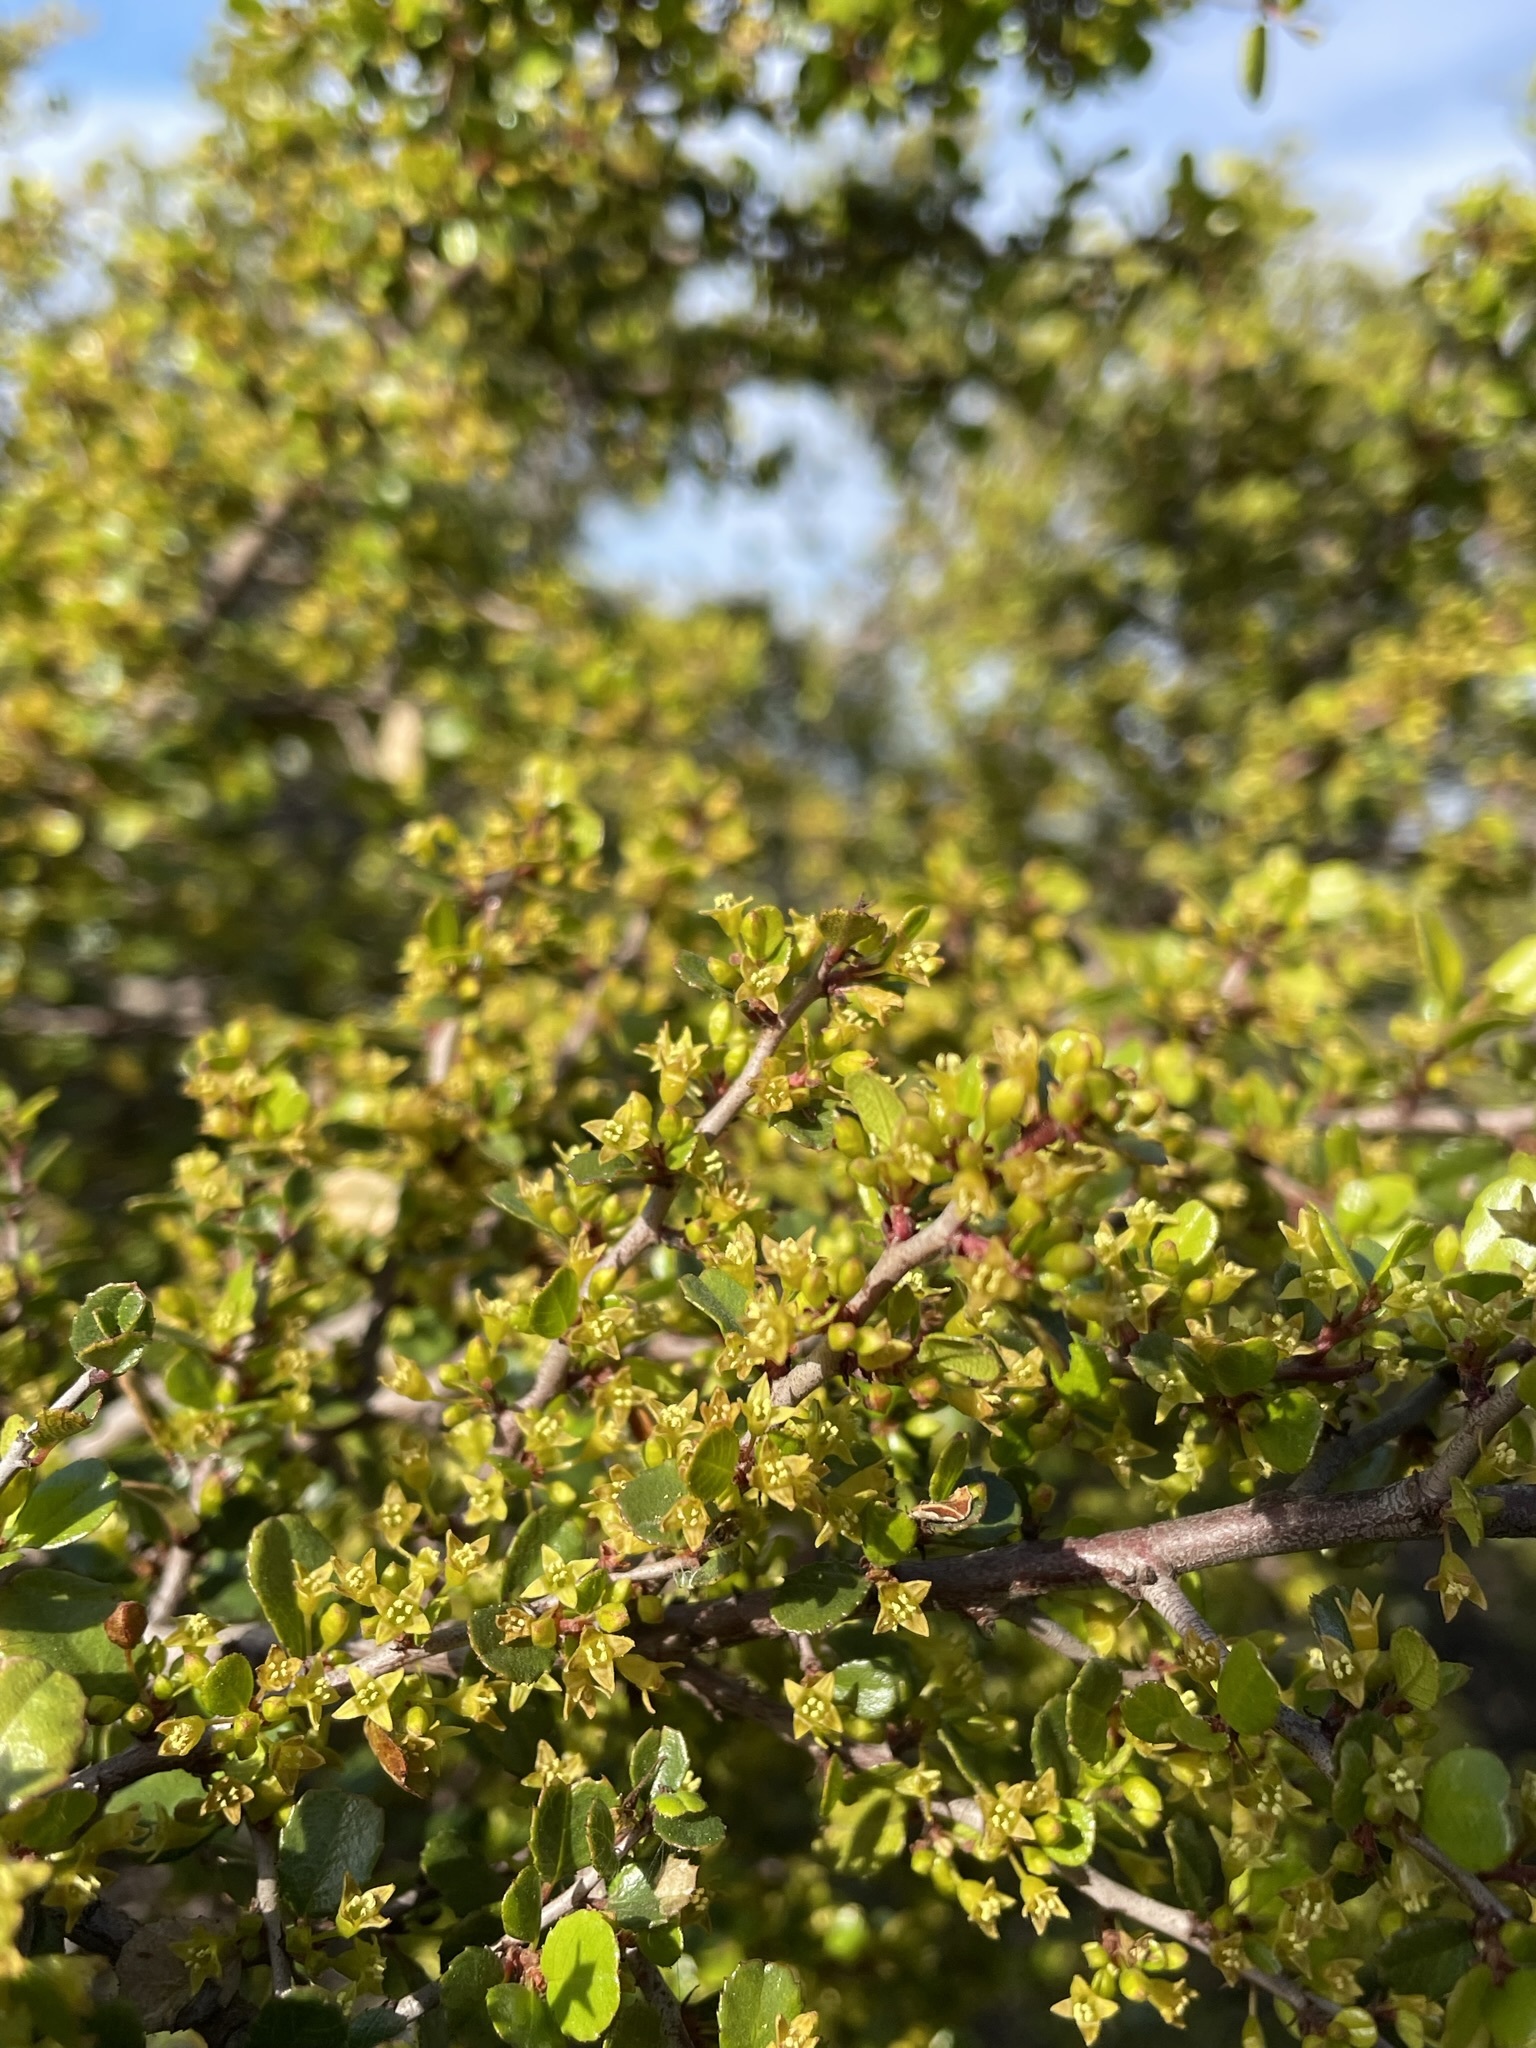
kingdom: Plantae
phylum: Tracheophyta
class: Magnoliopsida
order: Rosales
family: Rhamnaceae
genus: Endotropis
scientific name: Endotropis crocea
